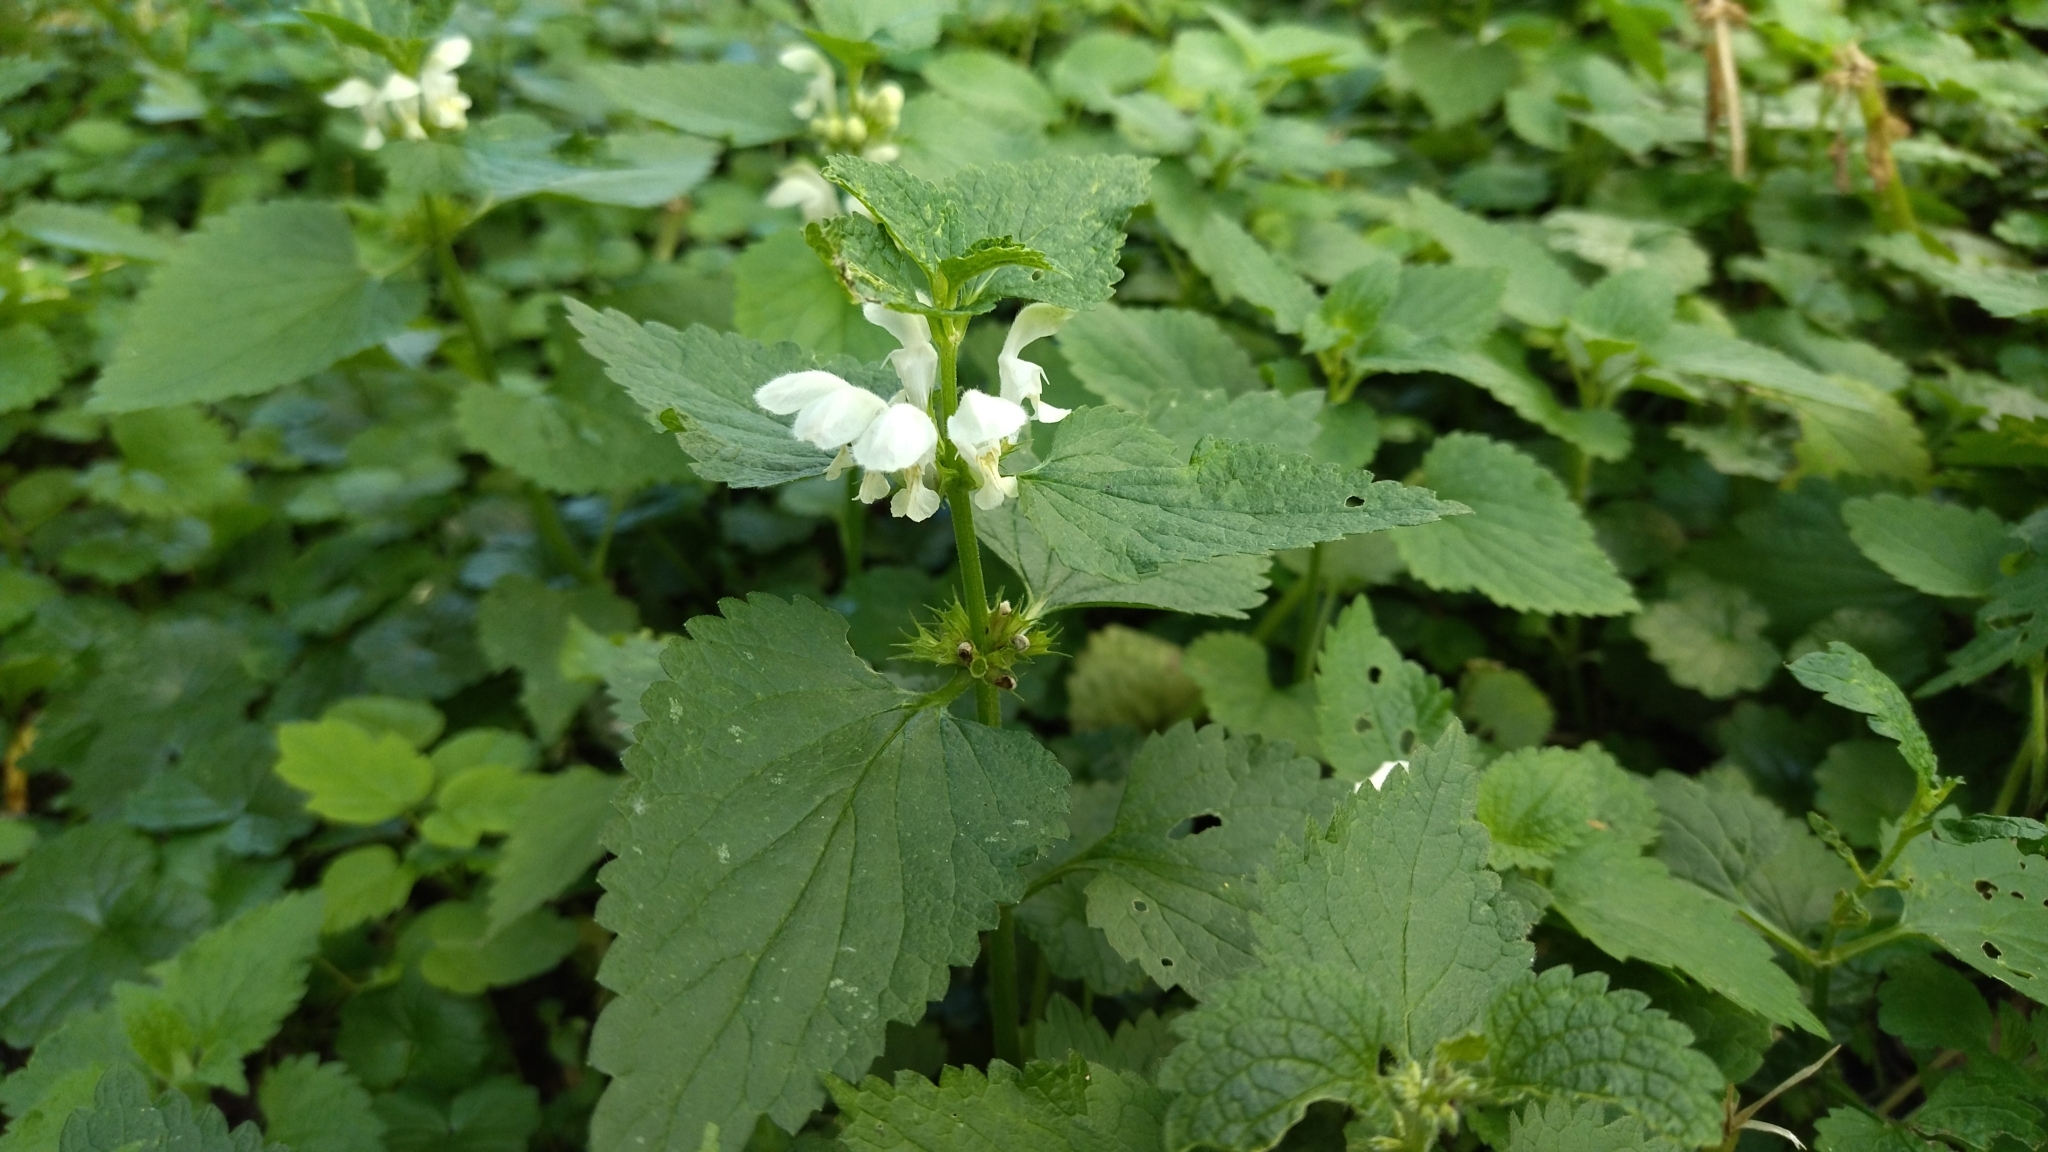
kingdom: Plantae
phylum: Tracheophyta
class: Magnoliopsida
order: Lamiales
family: Lamiaceae
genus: Lamium
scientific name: Lamium album
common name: White dead-nettle
